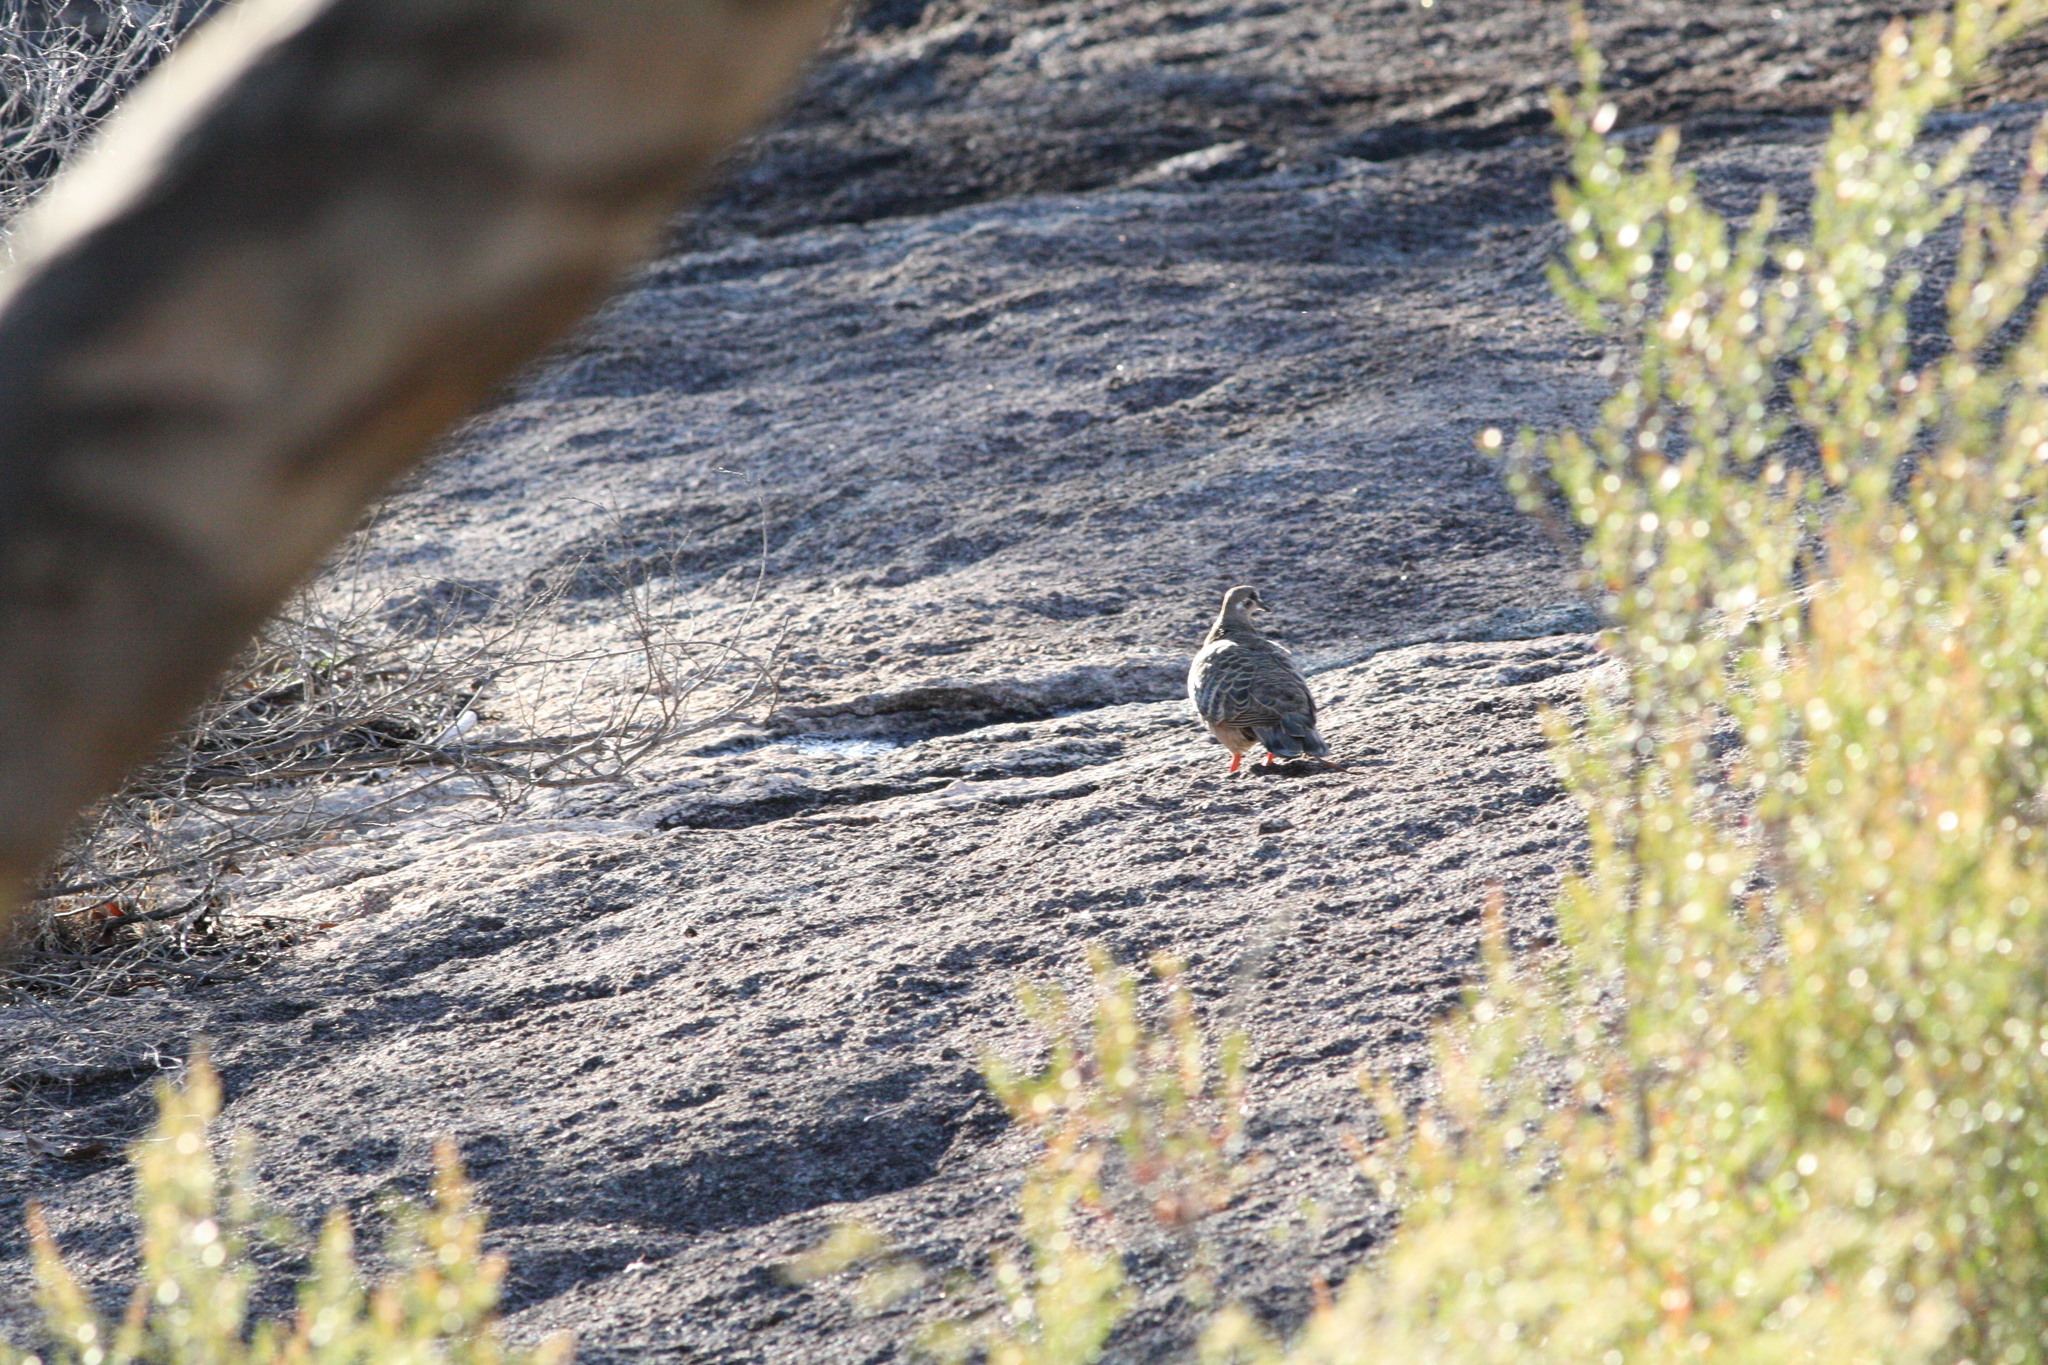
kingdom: Animalia
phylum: Chordata
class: Aves
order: Columbiformes
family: Columbidae
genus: Phaps
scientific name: Phaps chalcoptera
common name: Common bronzewing
